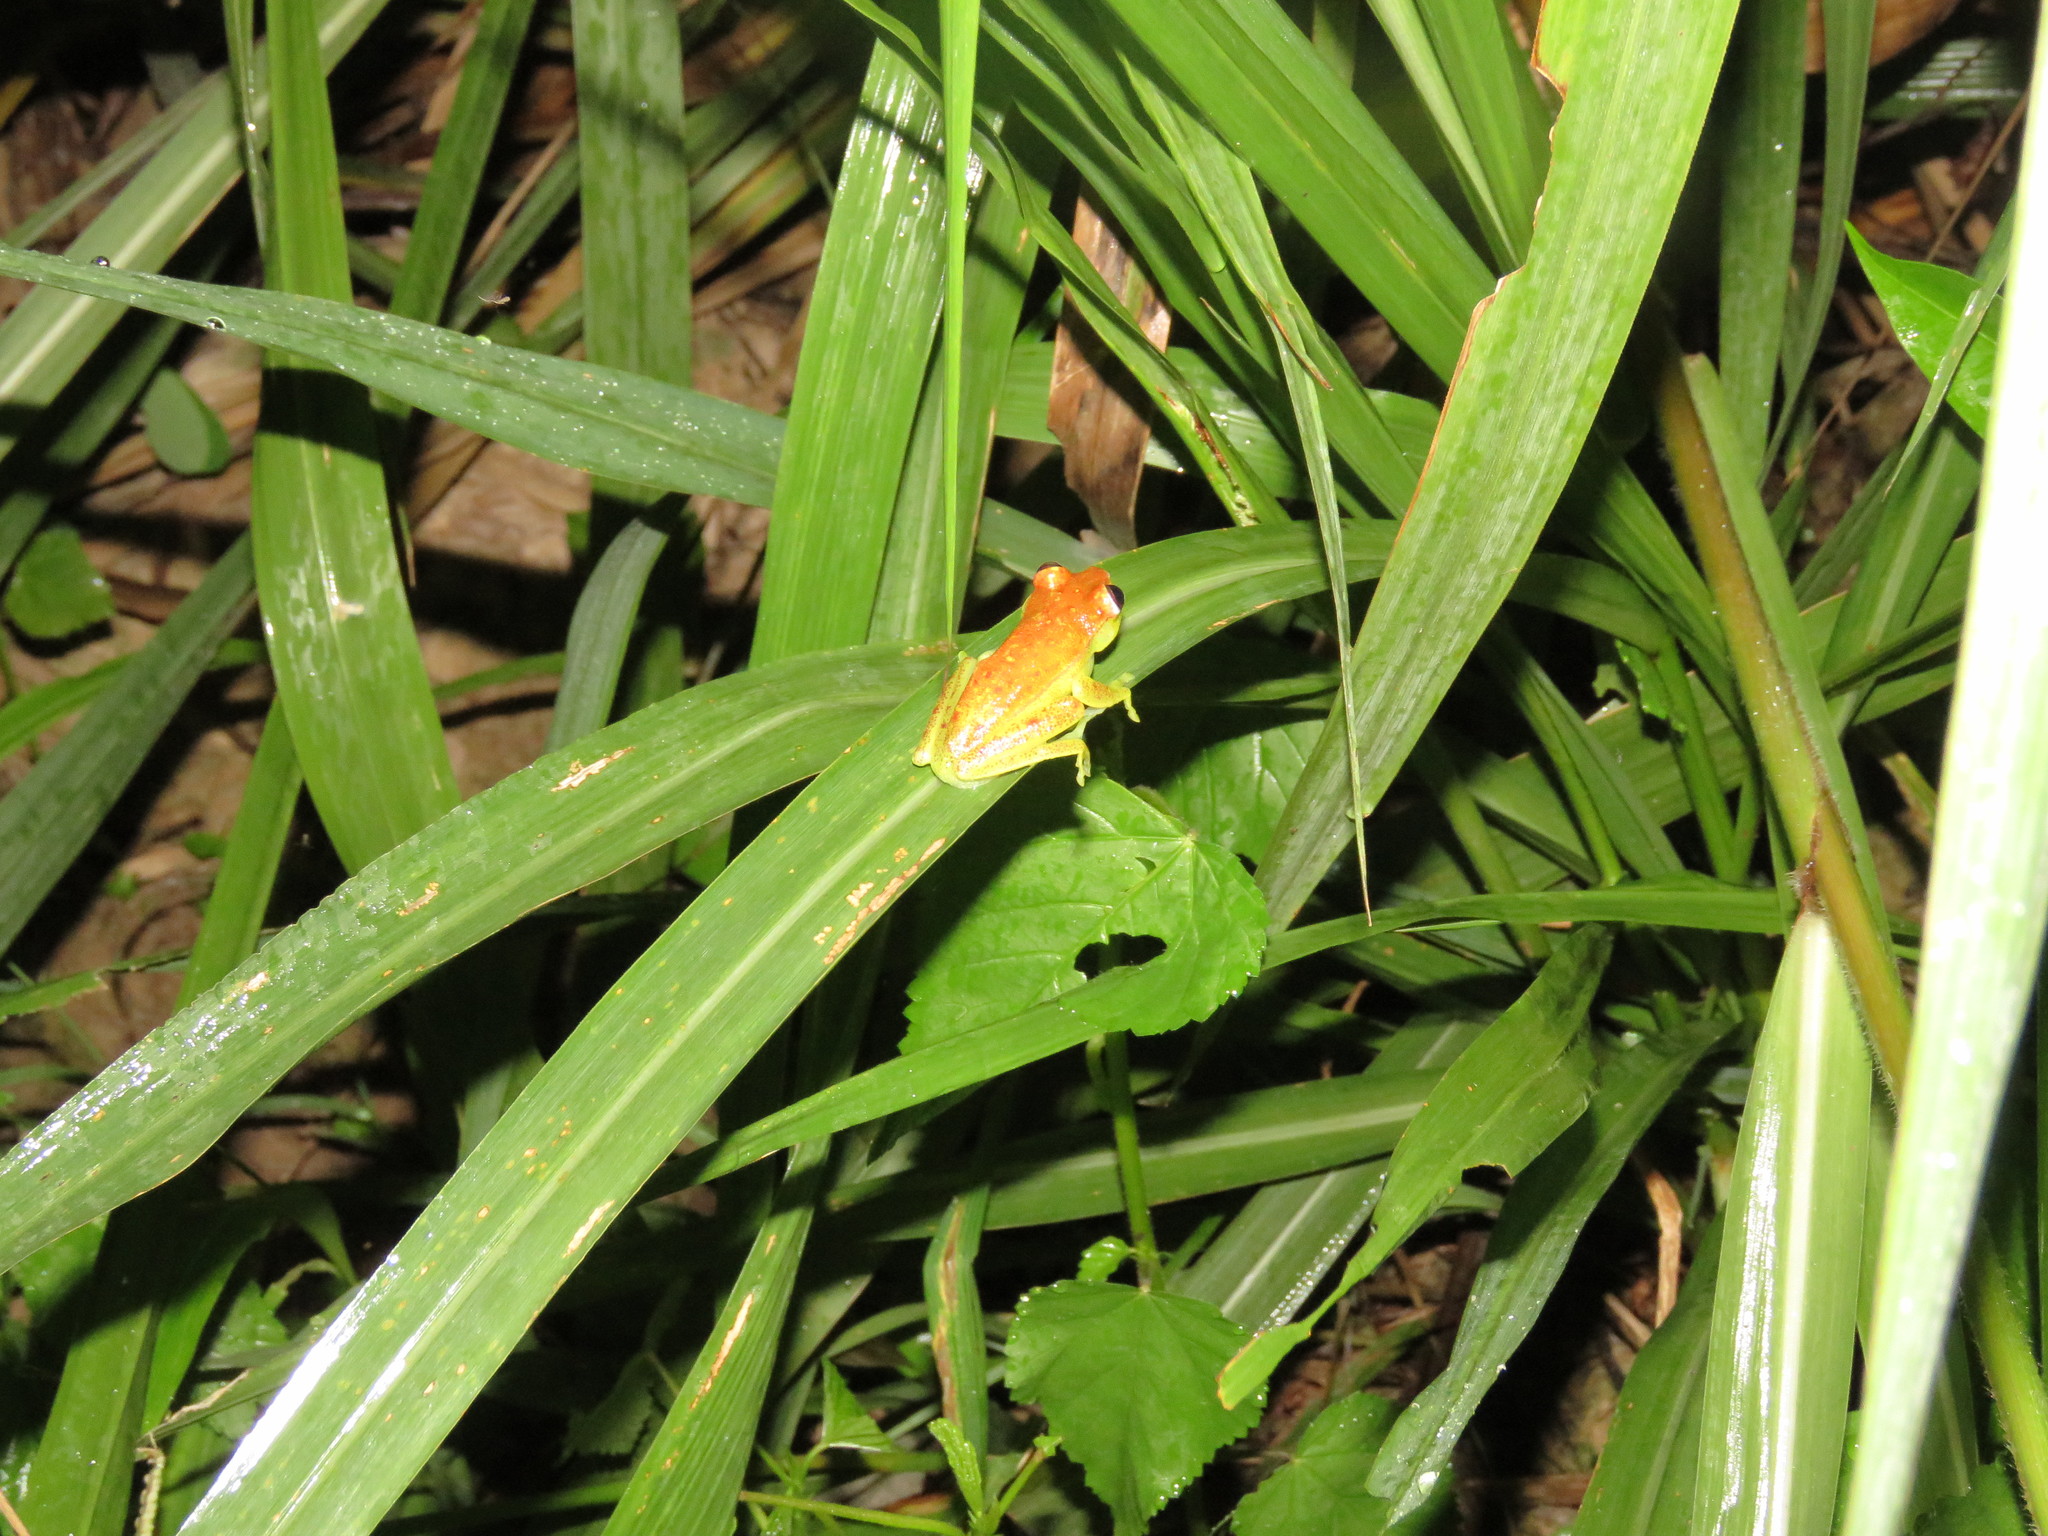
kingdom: Animalia
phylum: Chordata
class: Amphibia
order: Anura
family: Hylidae
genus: Boana
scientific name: Boana punctata
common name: Polka-dot treefrog
